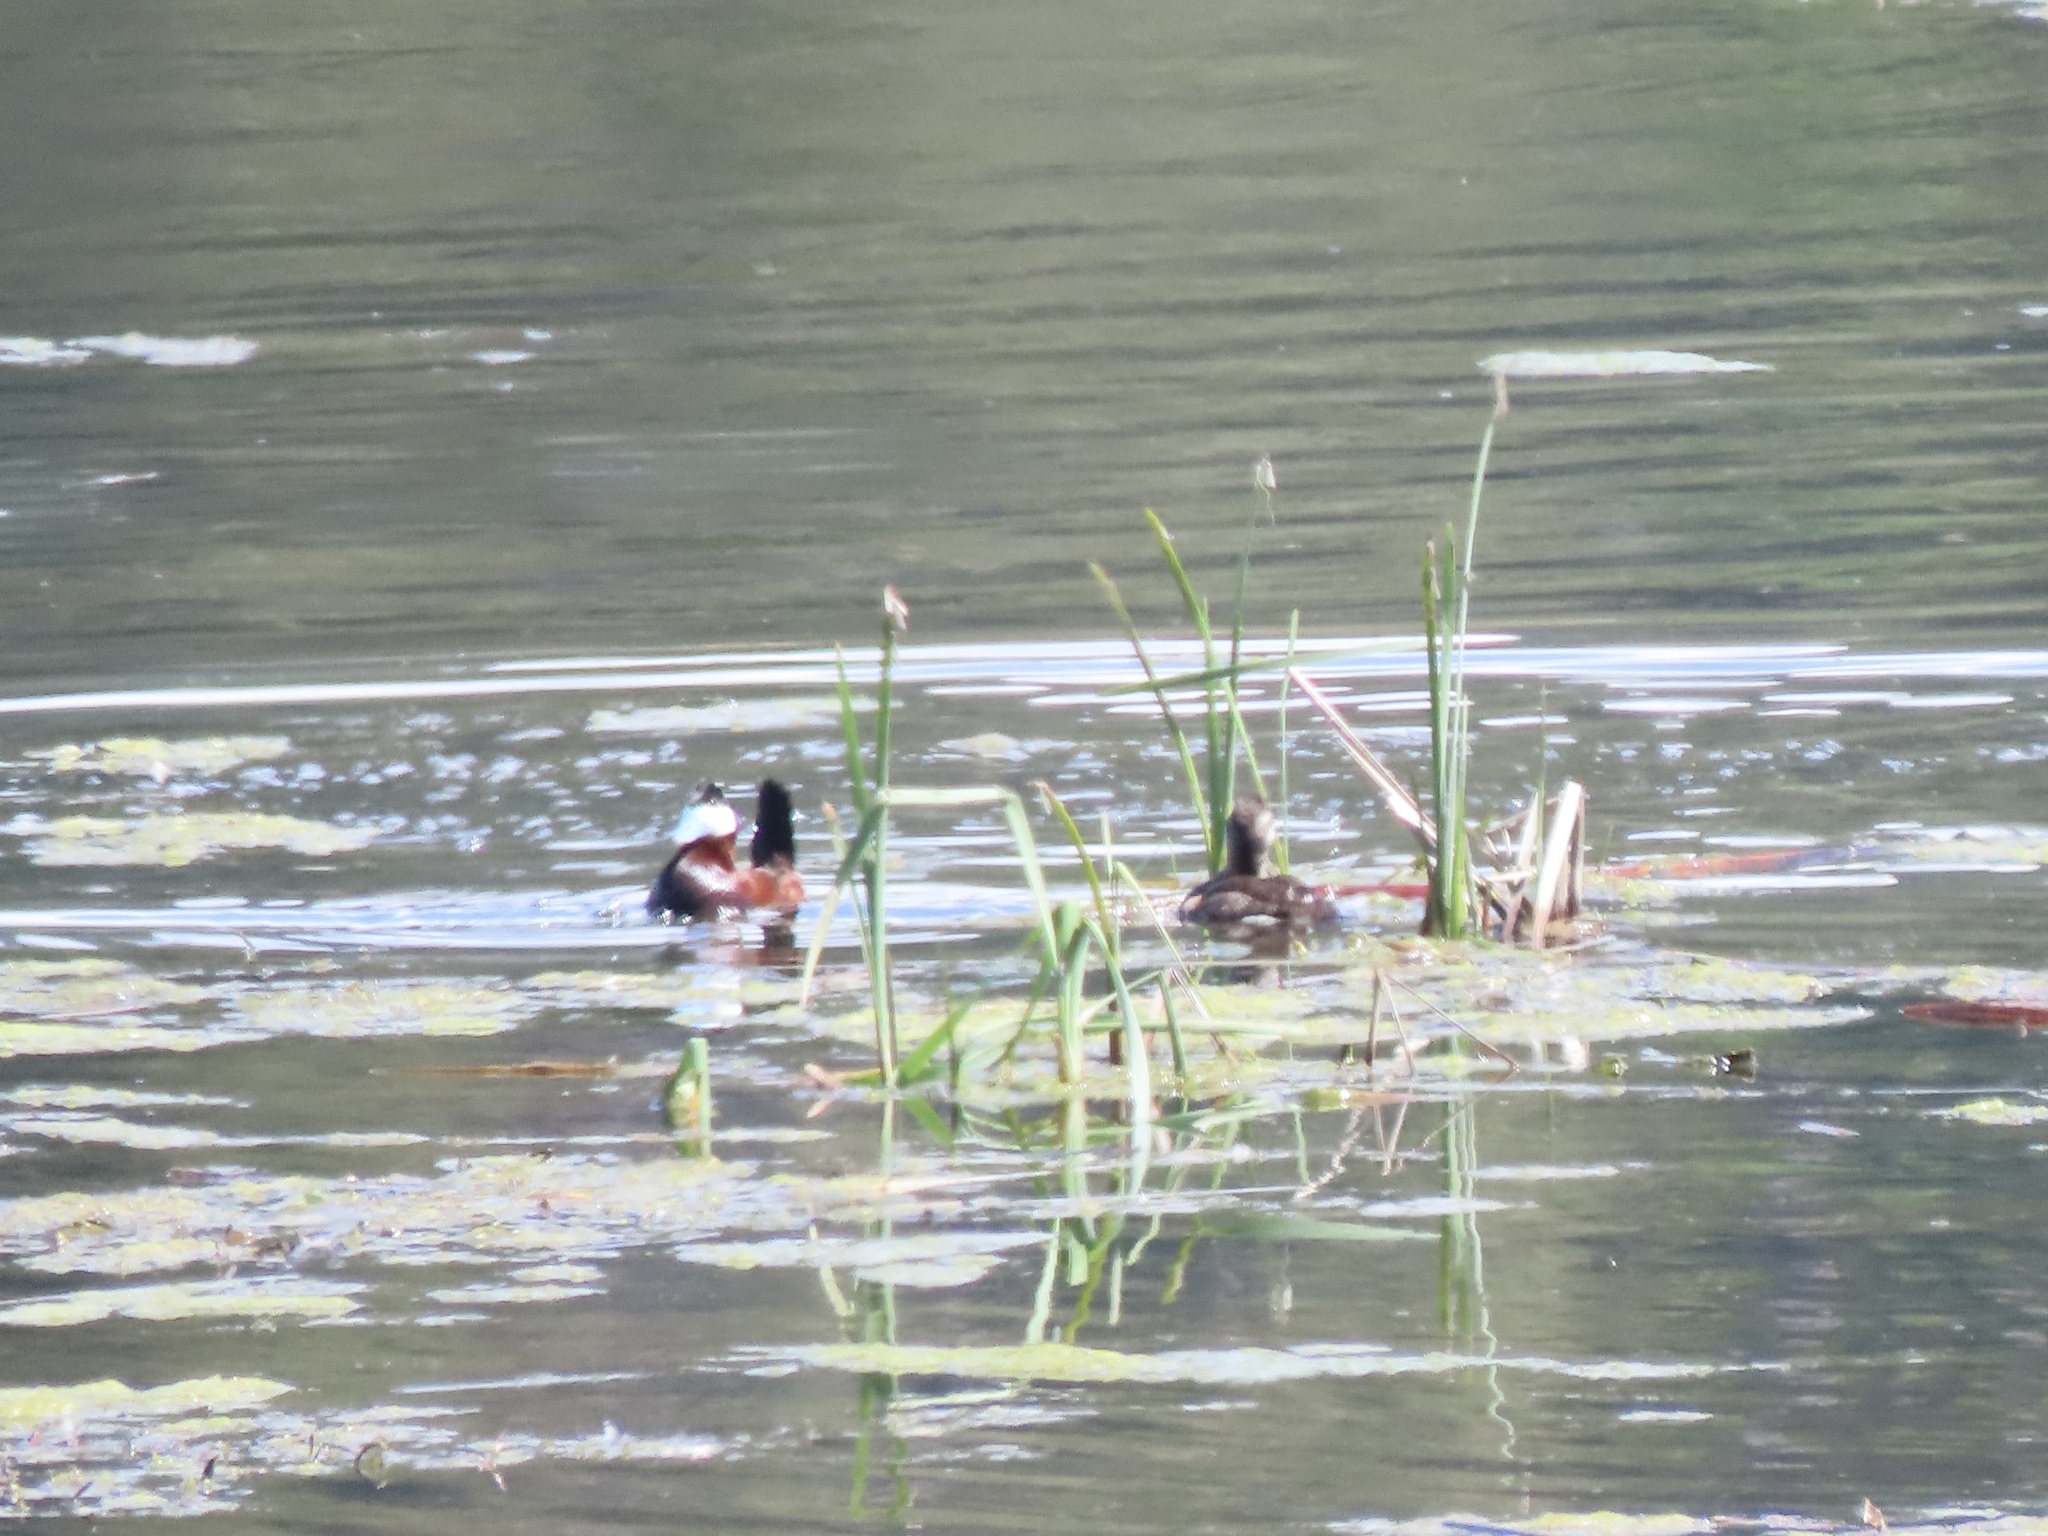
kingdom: Animalia
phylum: Chordata
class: Aves
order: Anseriformes
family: Anatidae
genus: Oxyura
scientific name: Oxyura jamaicensis
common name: Ruddy duck
